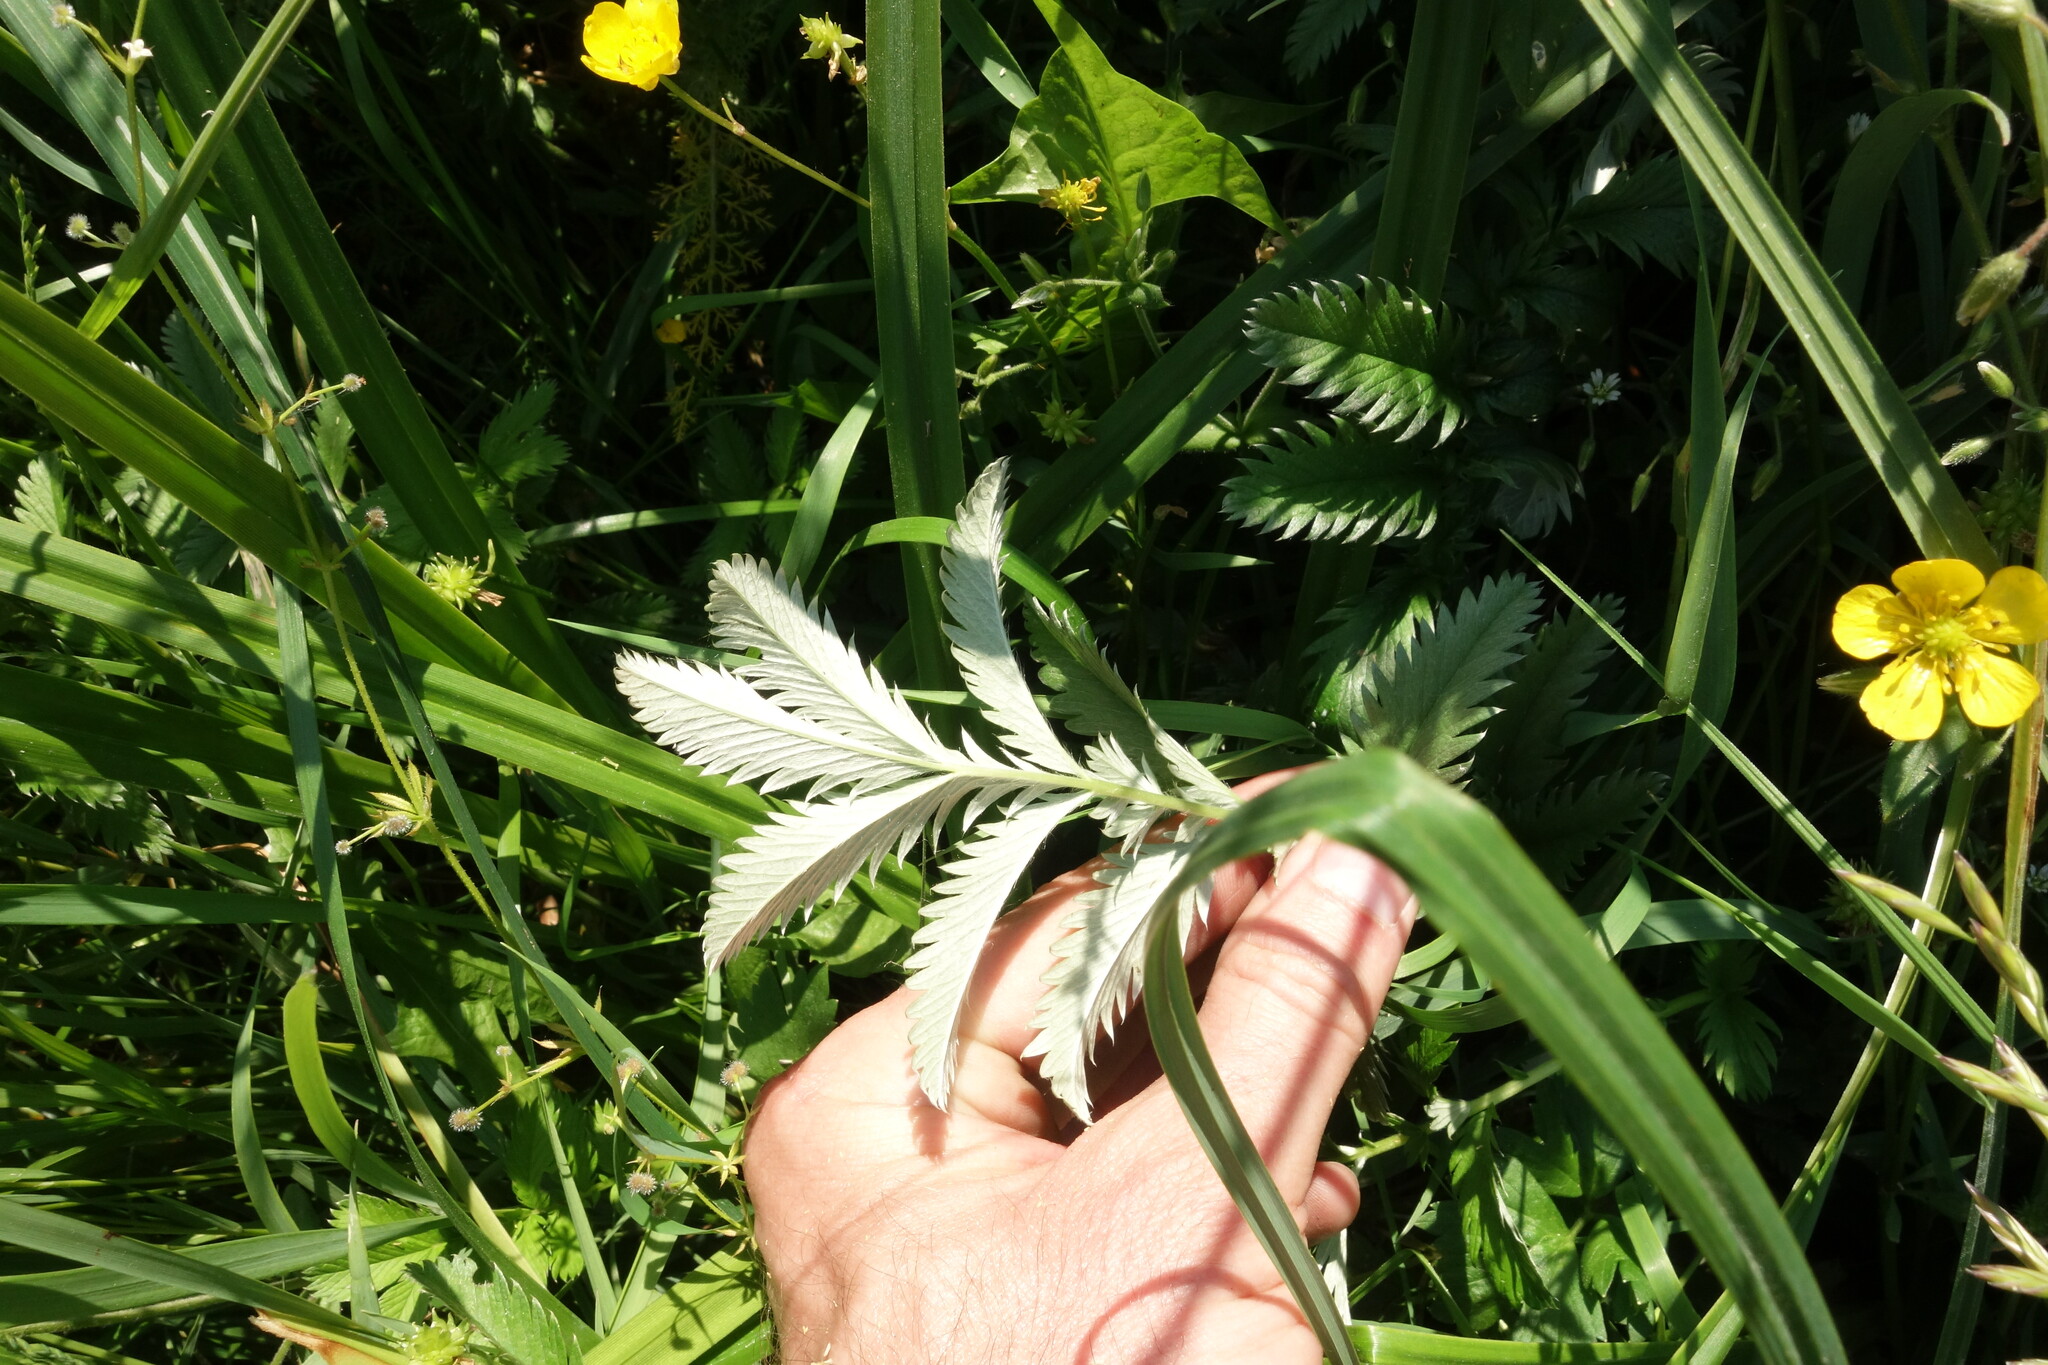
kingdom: Plantae
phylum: Tracheophyta
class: Magnoliopsida
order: Rosales
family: Rosaceae
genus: Argentina
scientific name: Argentina anserina
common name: Common silverweed
